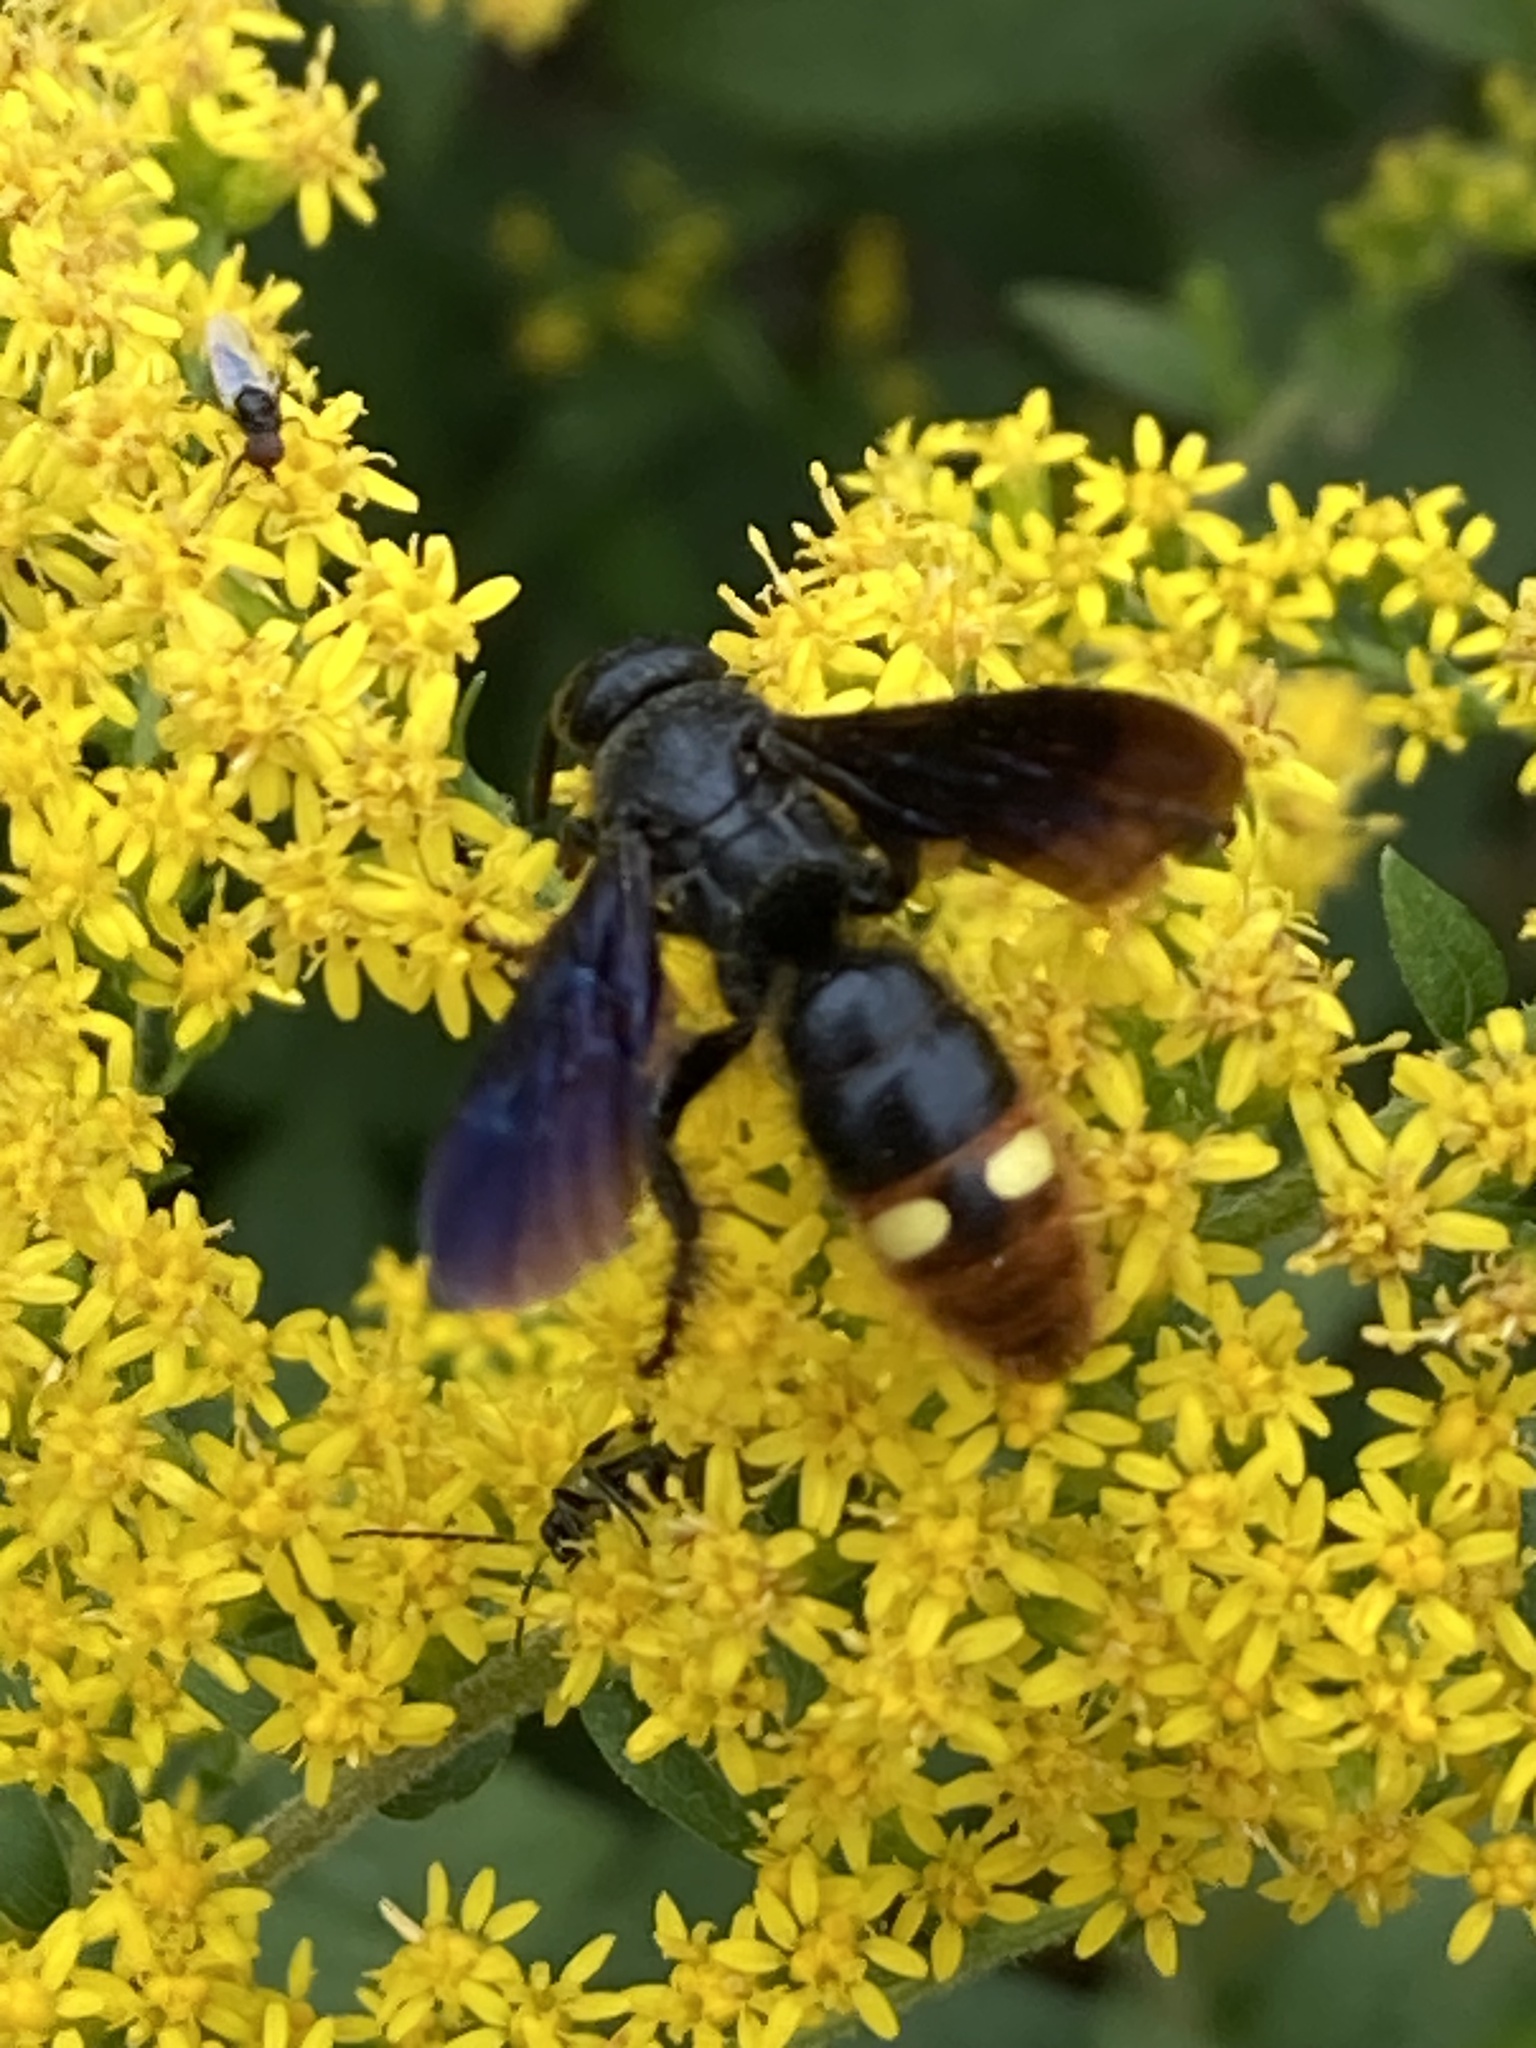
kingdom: Animalia
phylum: Arthropoda
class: Insecta
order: Hymenoptera
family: Scoliidae
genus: Scolia
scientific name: Scolia dubia
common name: Blue-winged scoliid wasp
